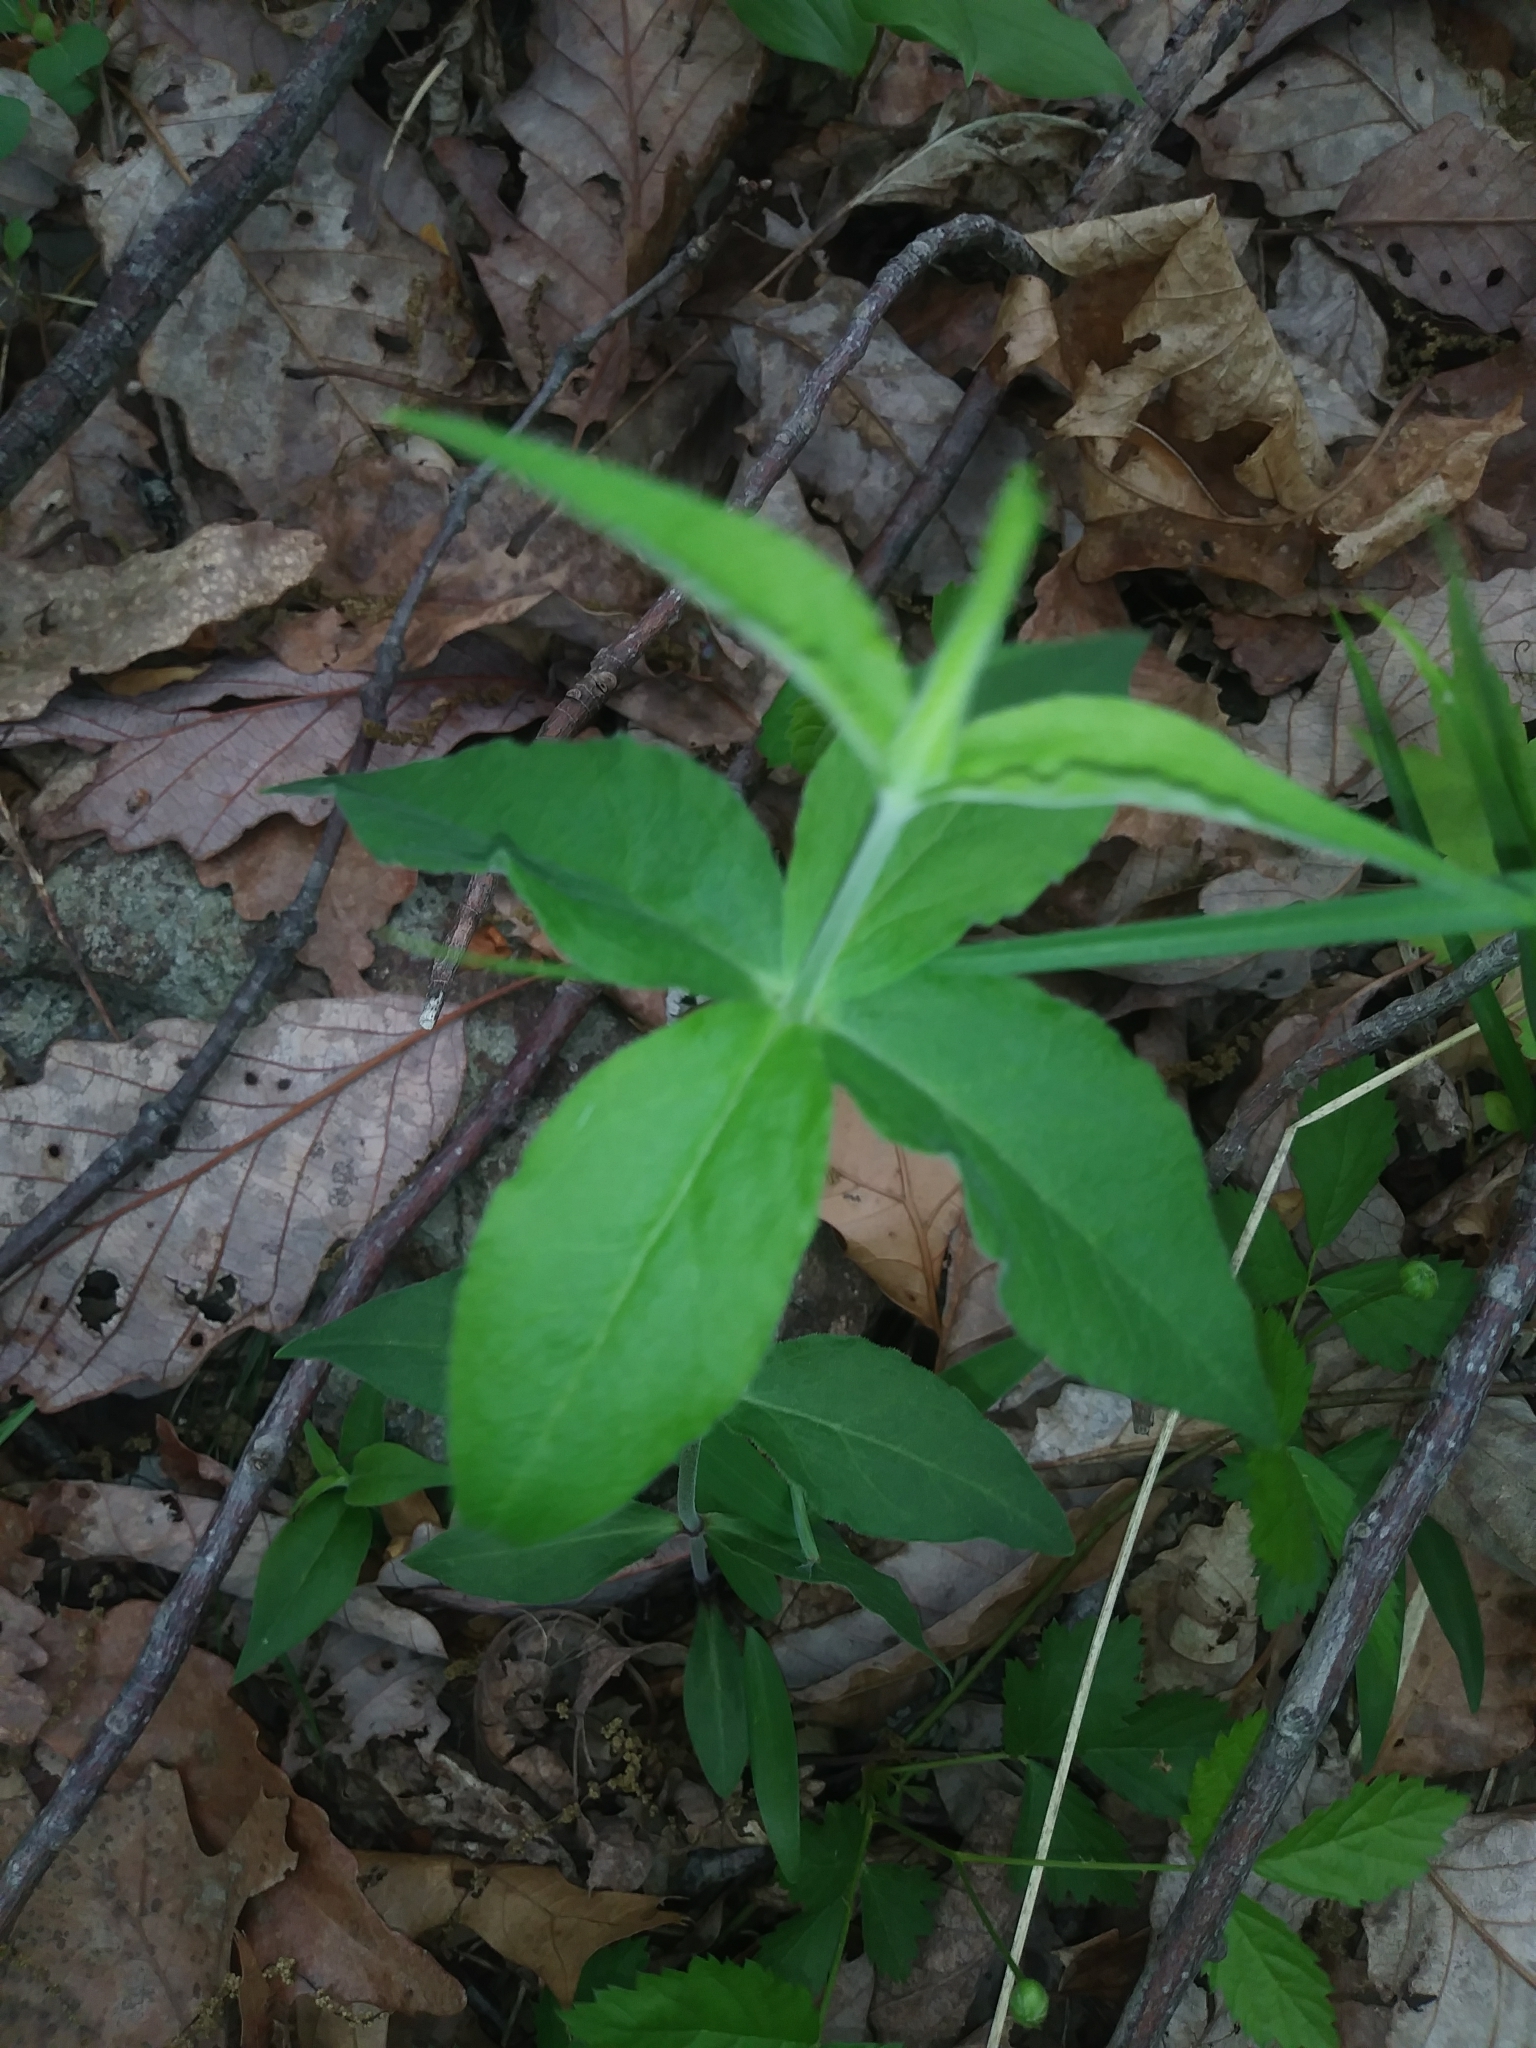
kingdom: Plantae
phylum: Tracheophyta
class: Magnoliopsida
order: Caryophyllales
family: Caryophyllaceae
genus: Silene
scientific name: Silene stellata
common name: Starry campion
